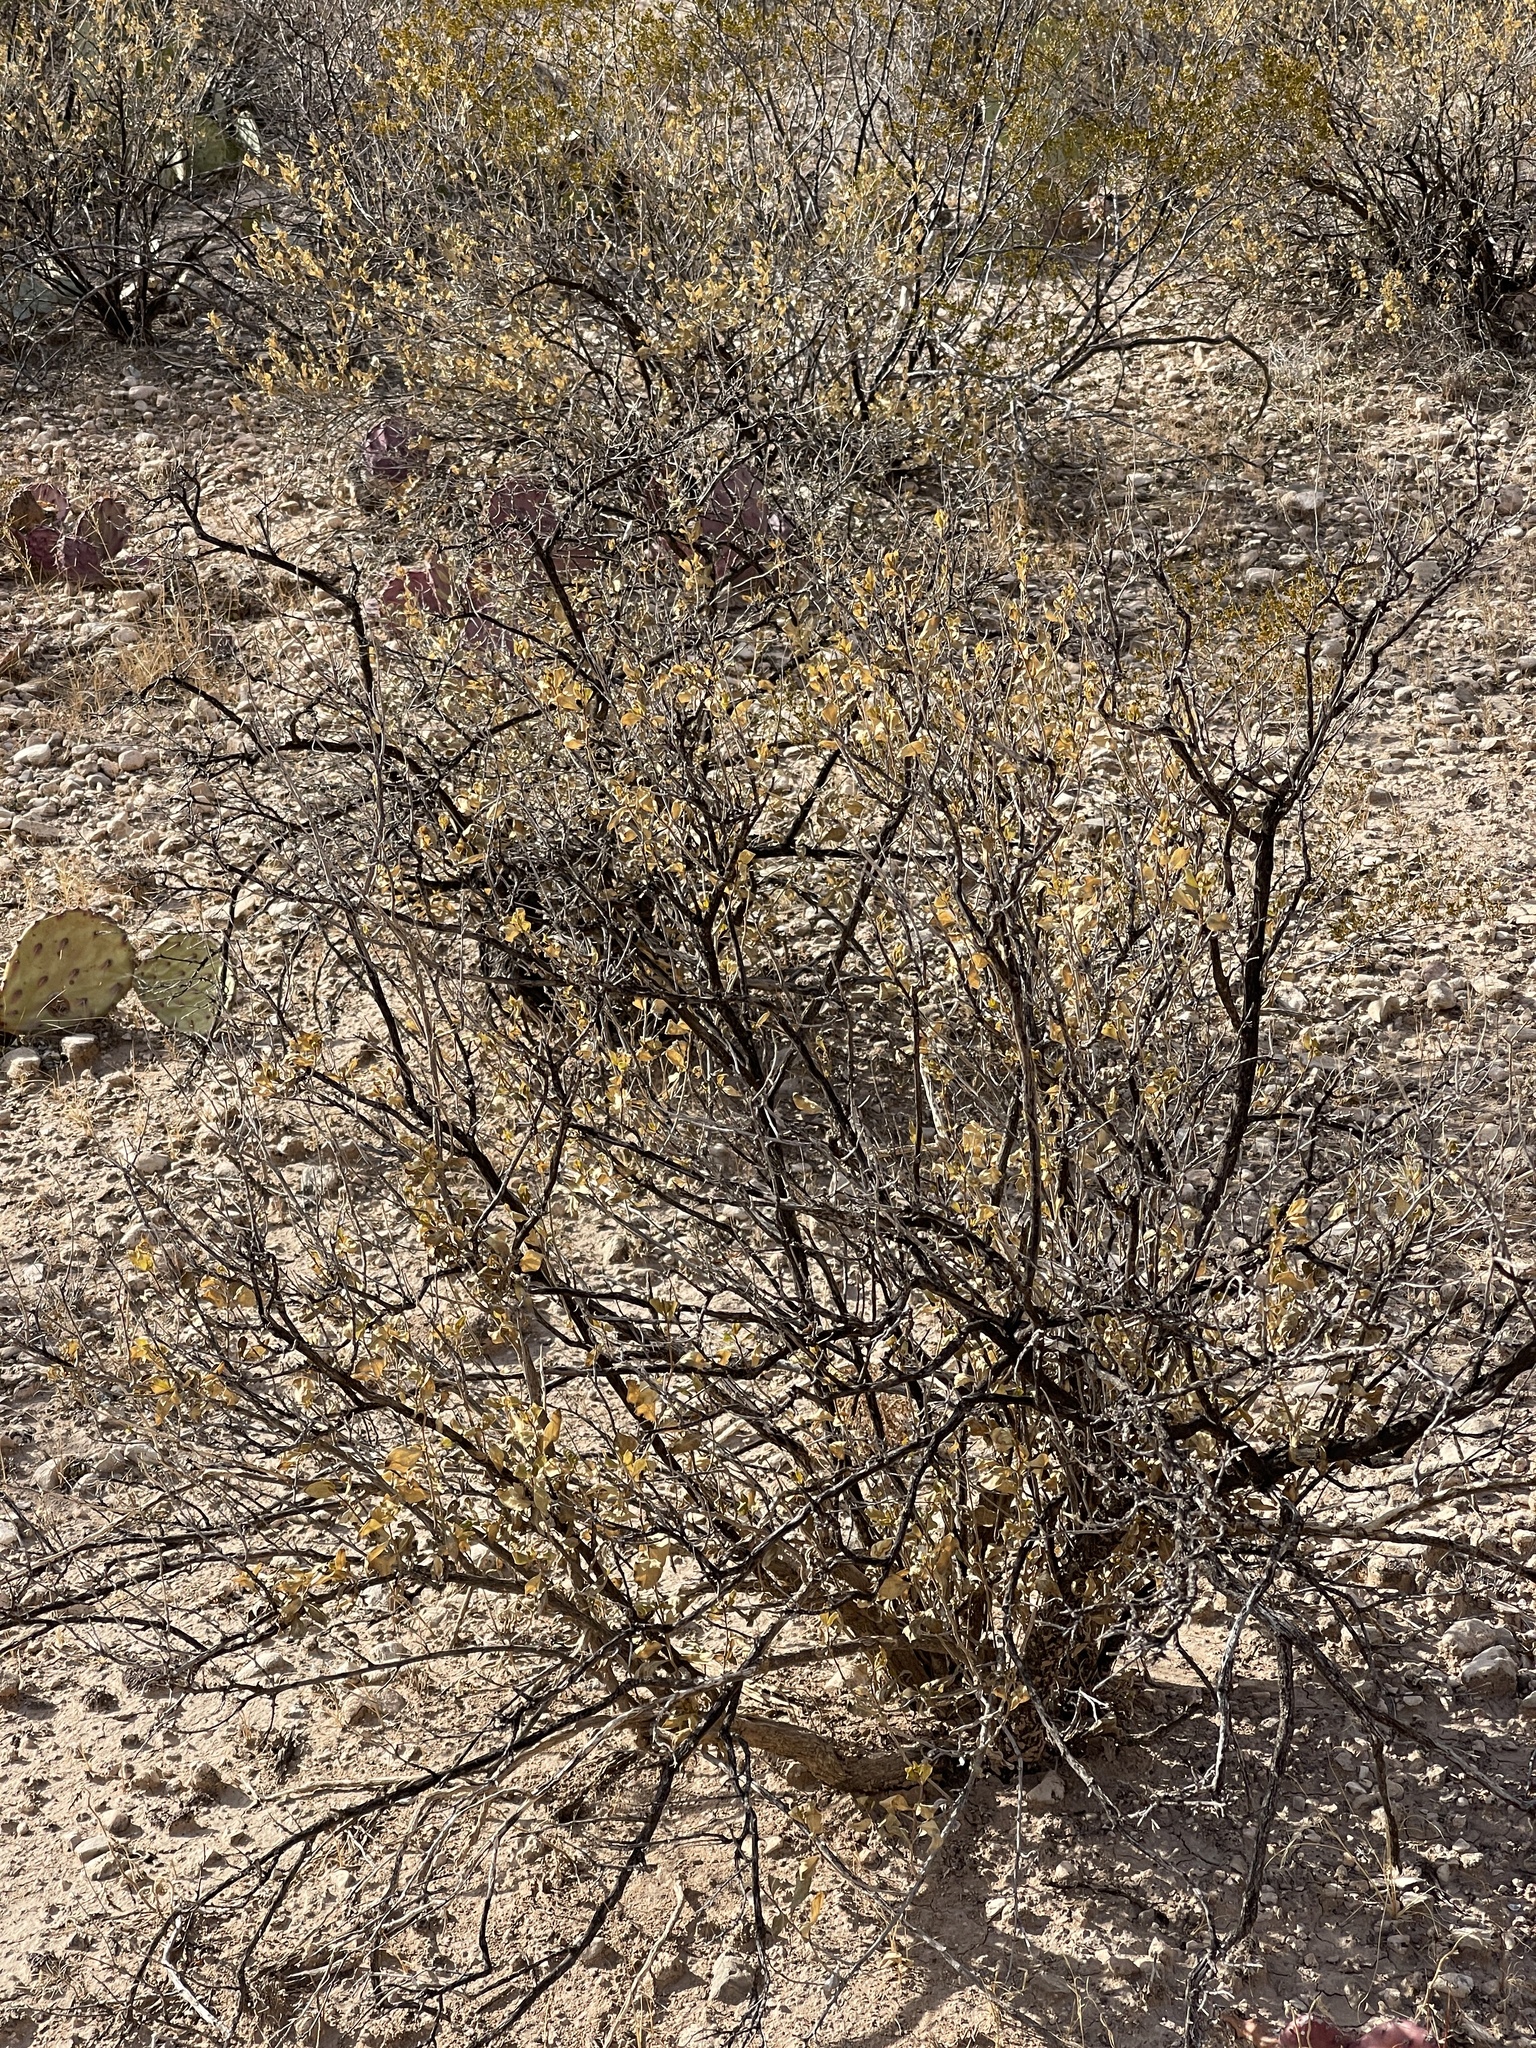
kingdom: Plantae
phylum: Tracheophyta
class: Magnoliopsida
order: Asterales
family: Asteraceae
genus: Flourensia
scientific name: Flourensia cernua
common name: Varnishbush
